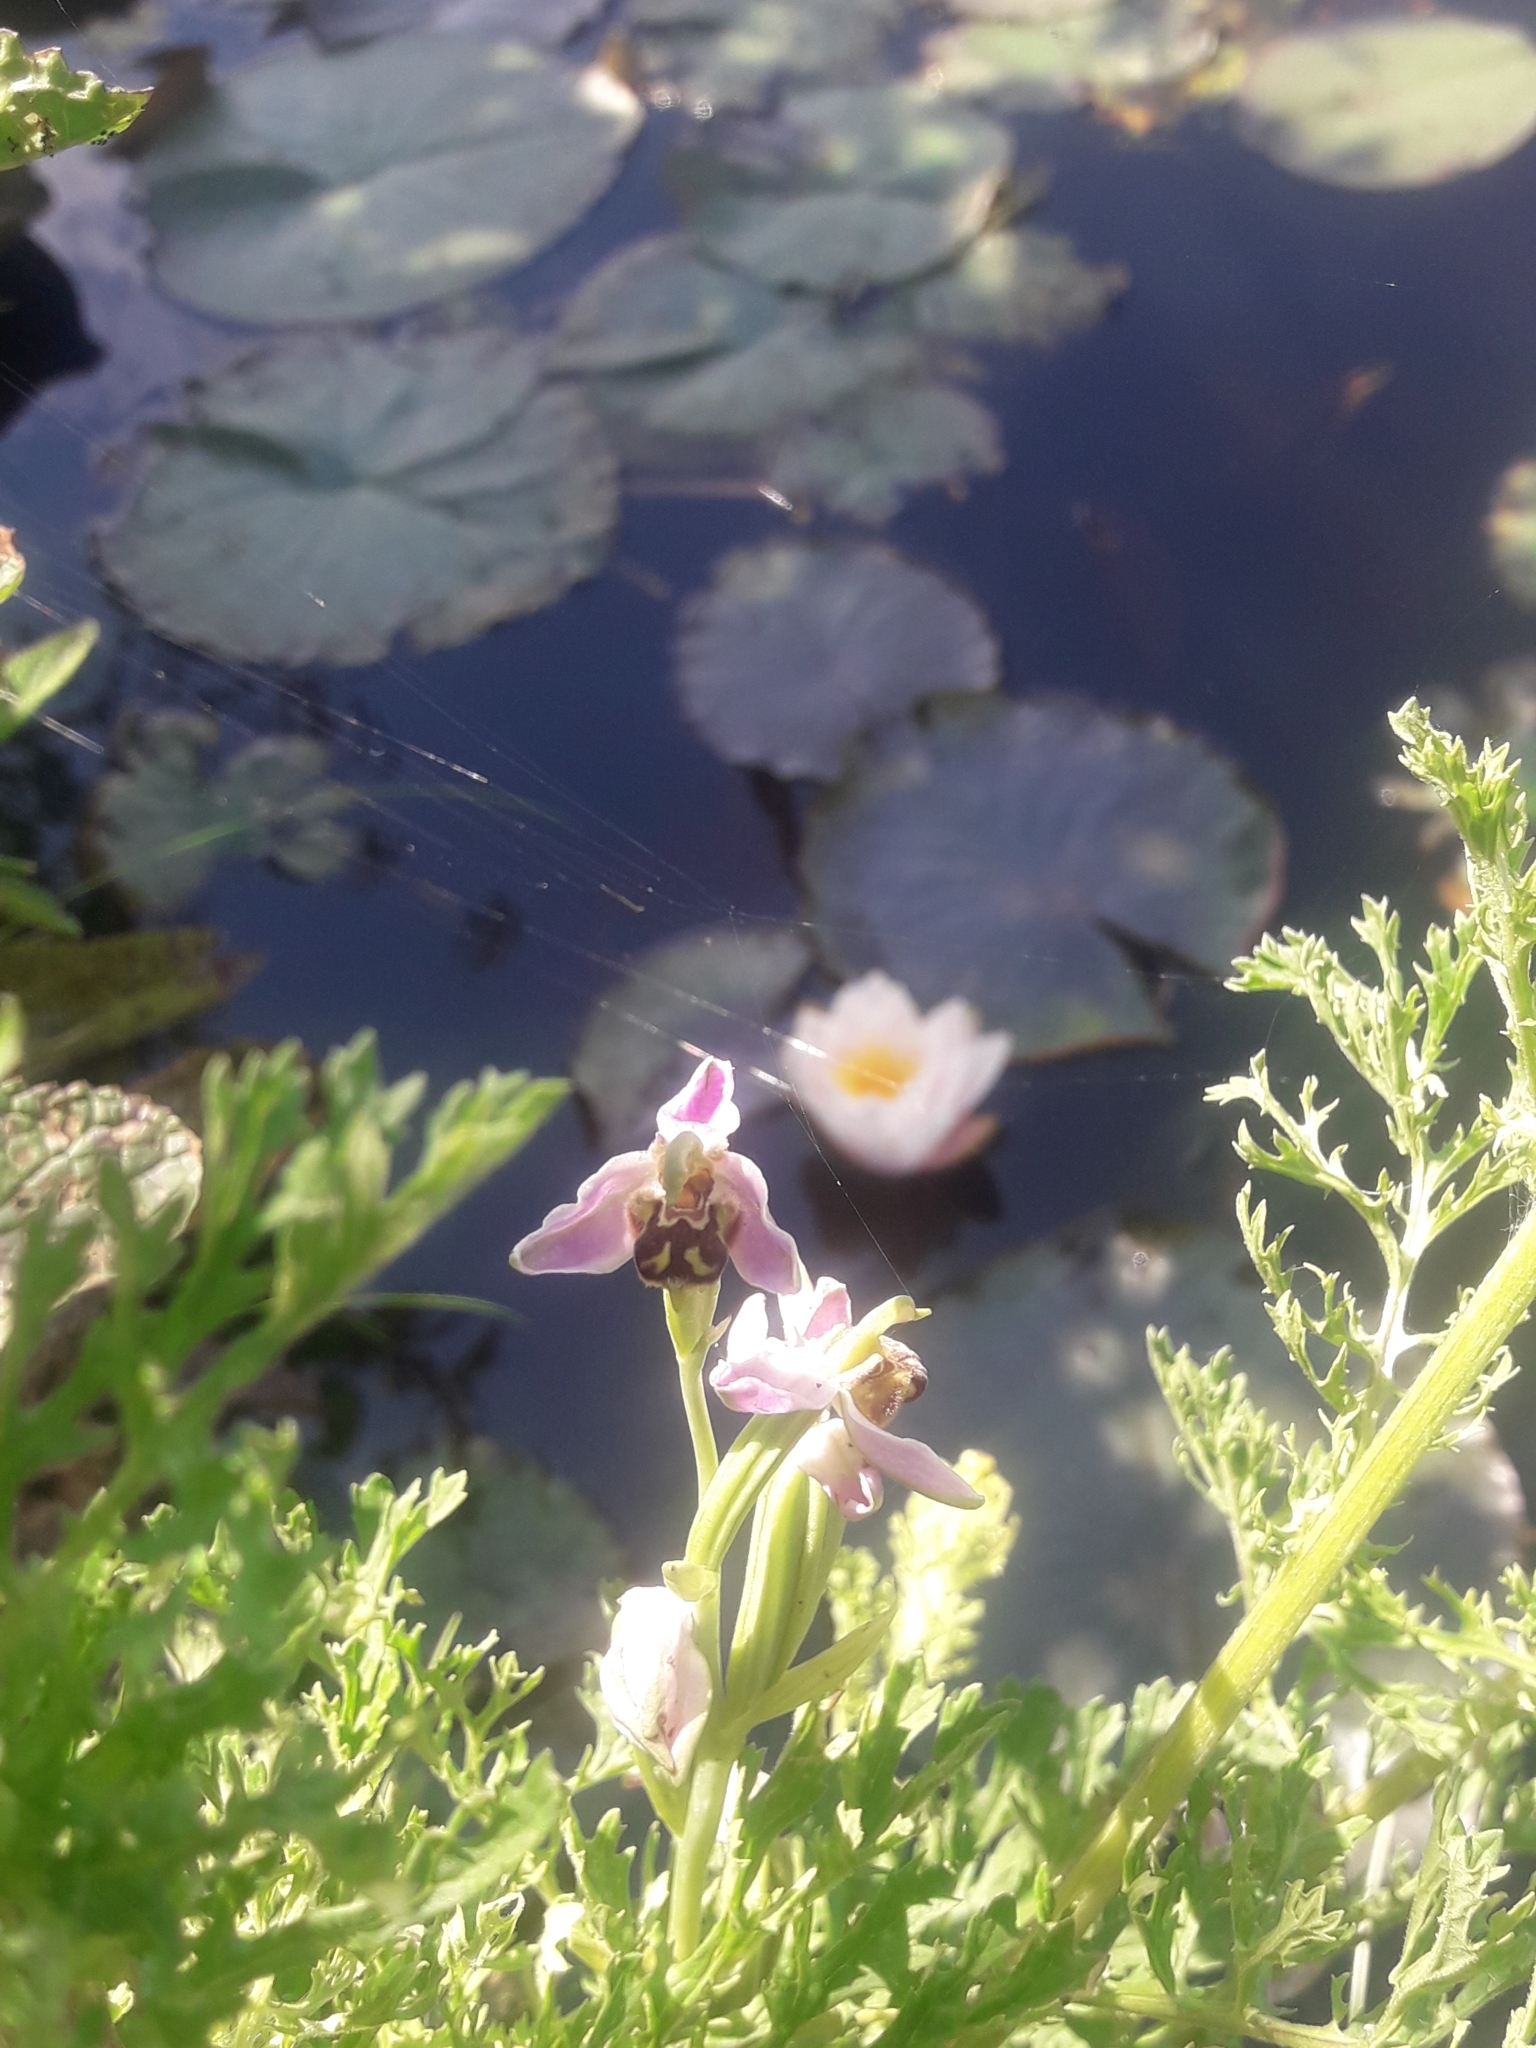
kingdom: Plantae
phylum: Tracheophyta
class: Liliopsida
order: Asparagales
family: Orchidaceae
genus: Ophrys
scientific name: Ophrys apifera
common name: Bee orchid
